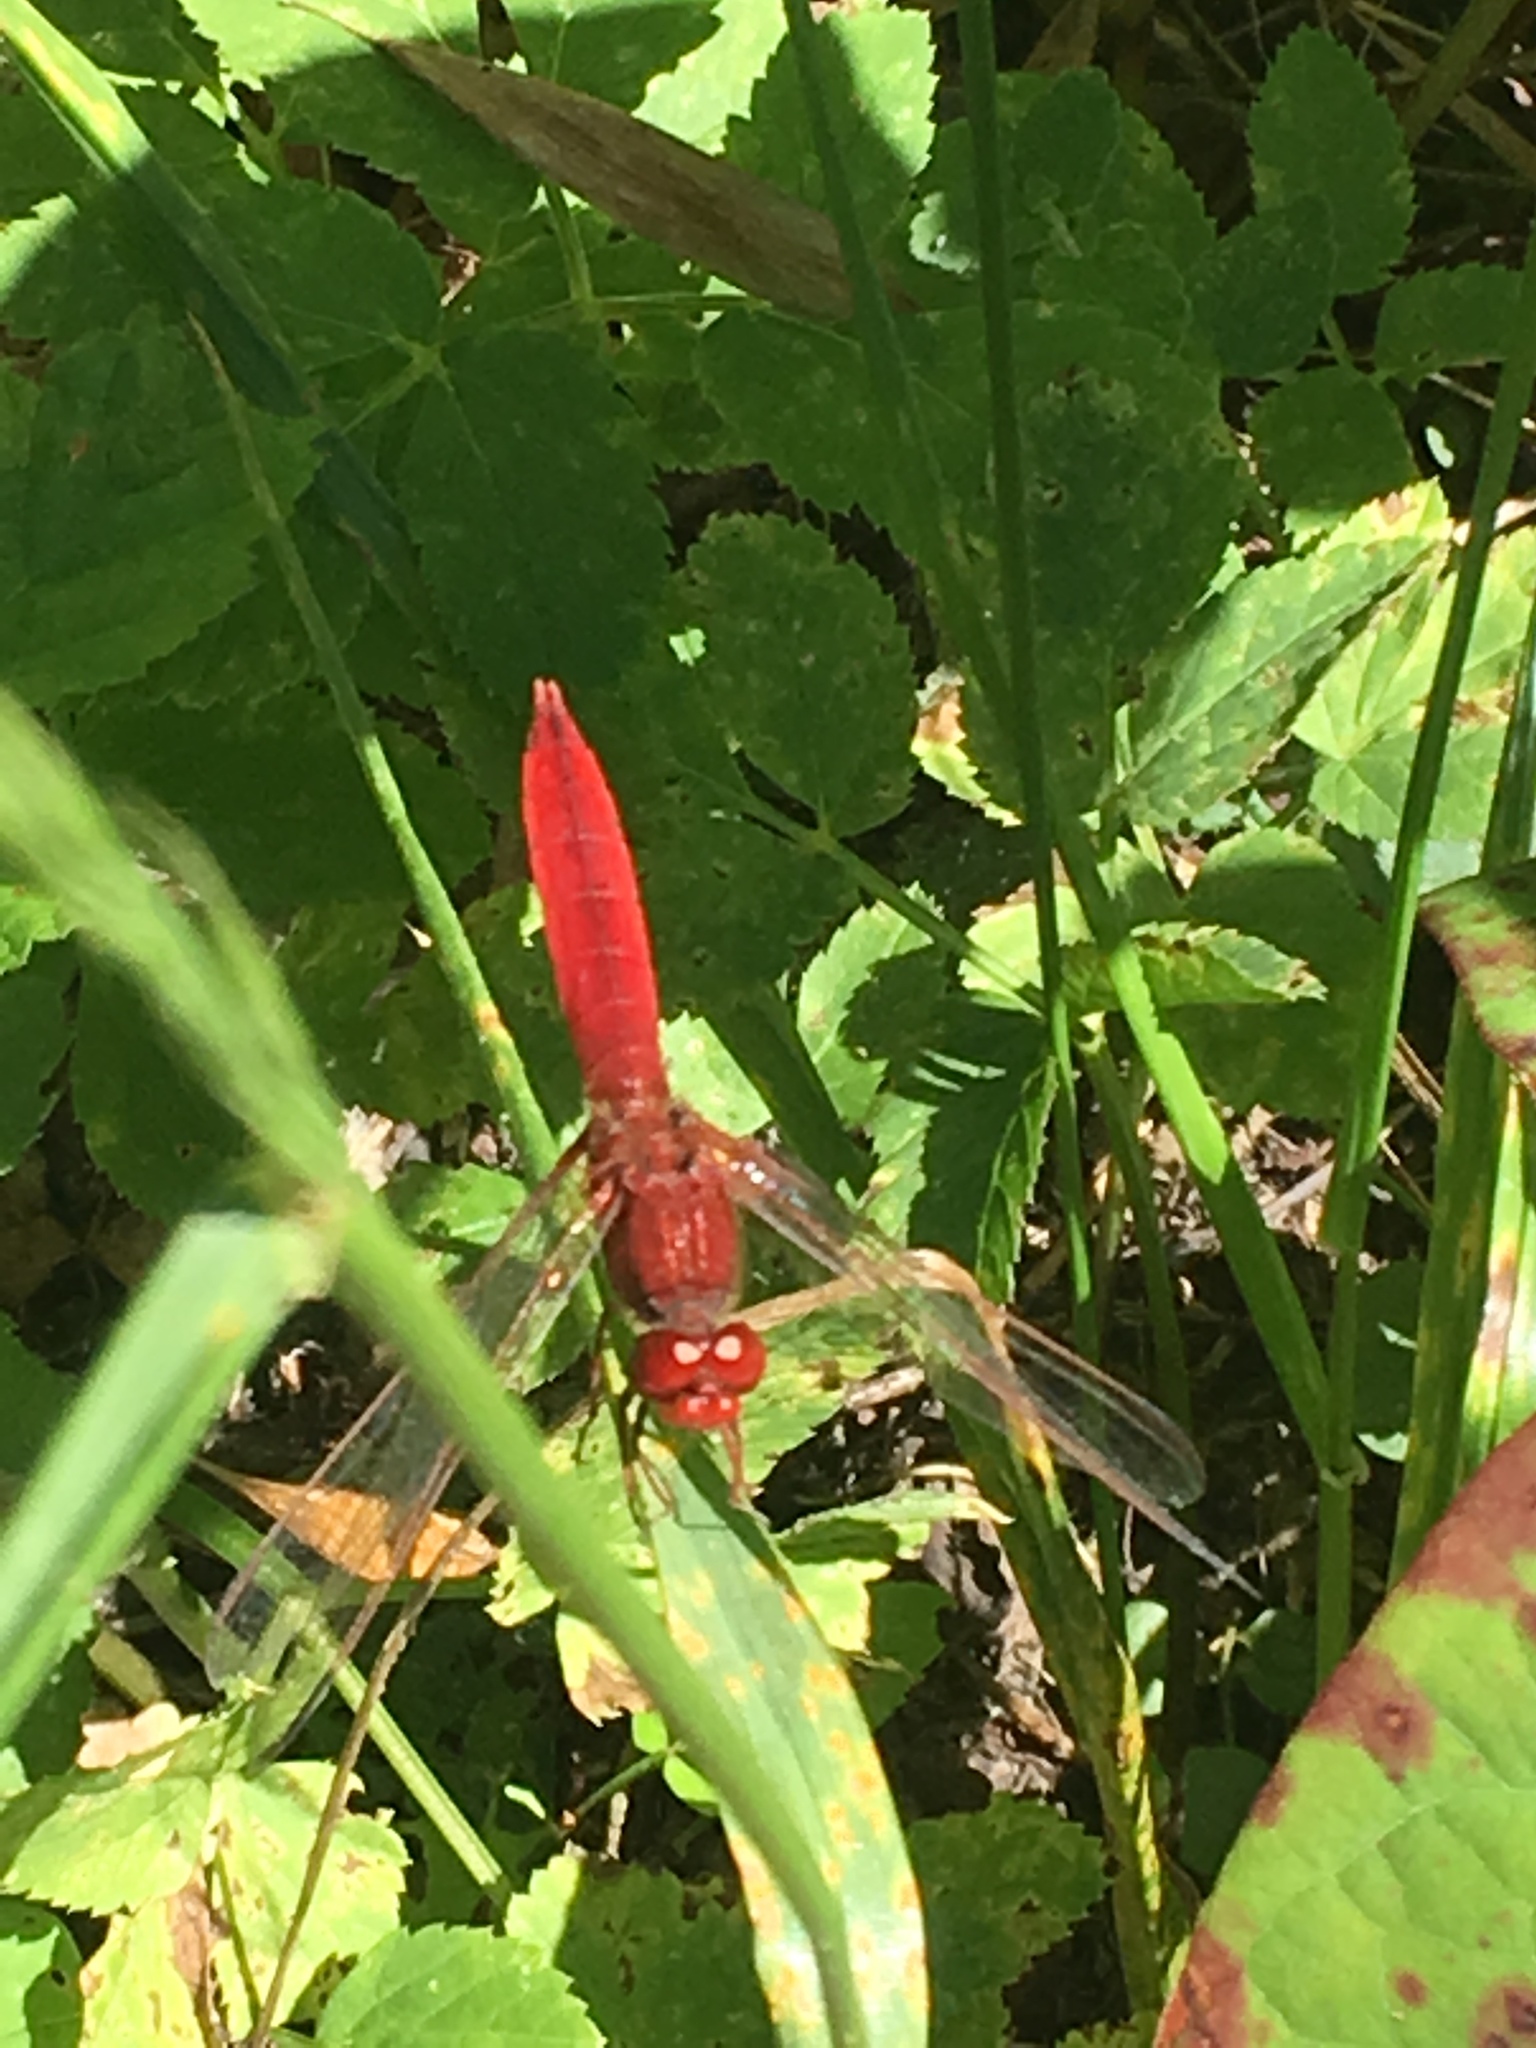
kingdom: Animalia
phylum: Arthropoda
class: Insecta
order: Odonata
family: Libellulidae
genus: Crocothemis
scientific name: Crocothemis erythraea
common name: Scarlet dragonfly
